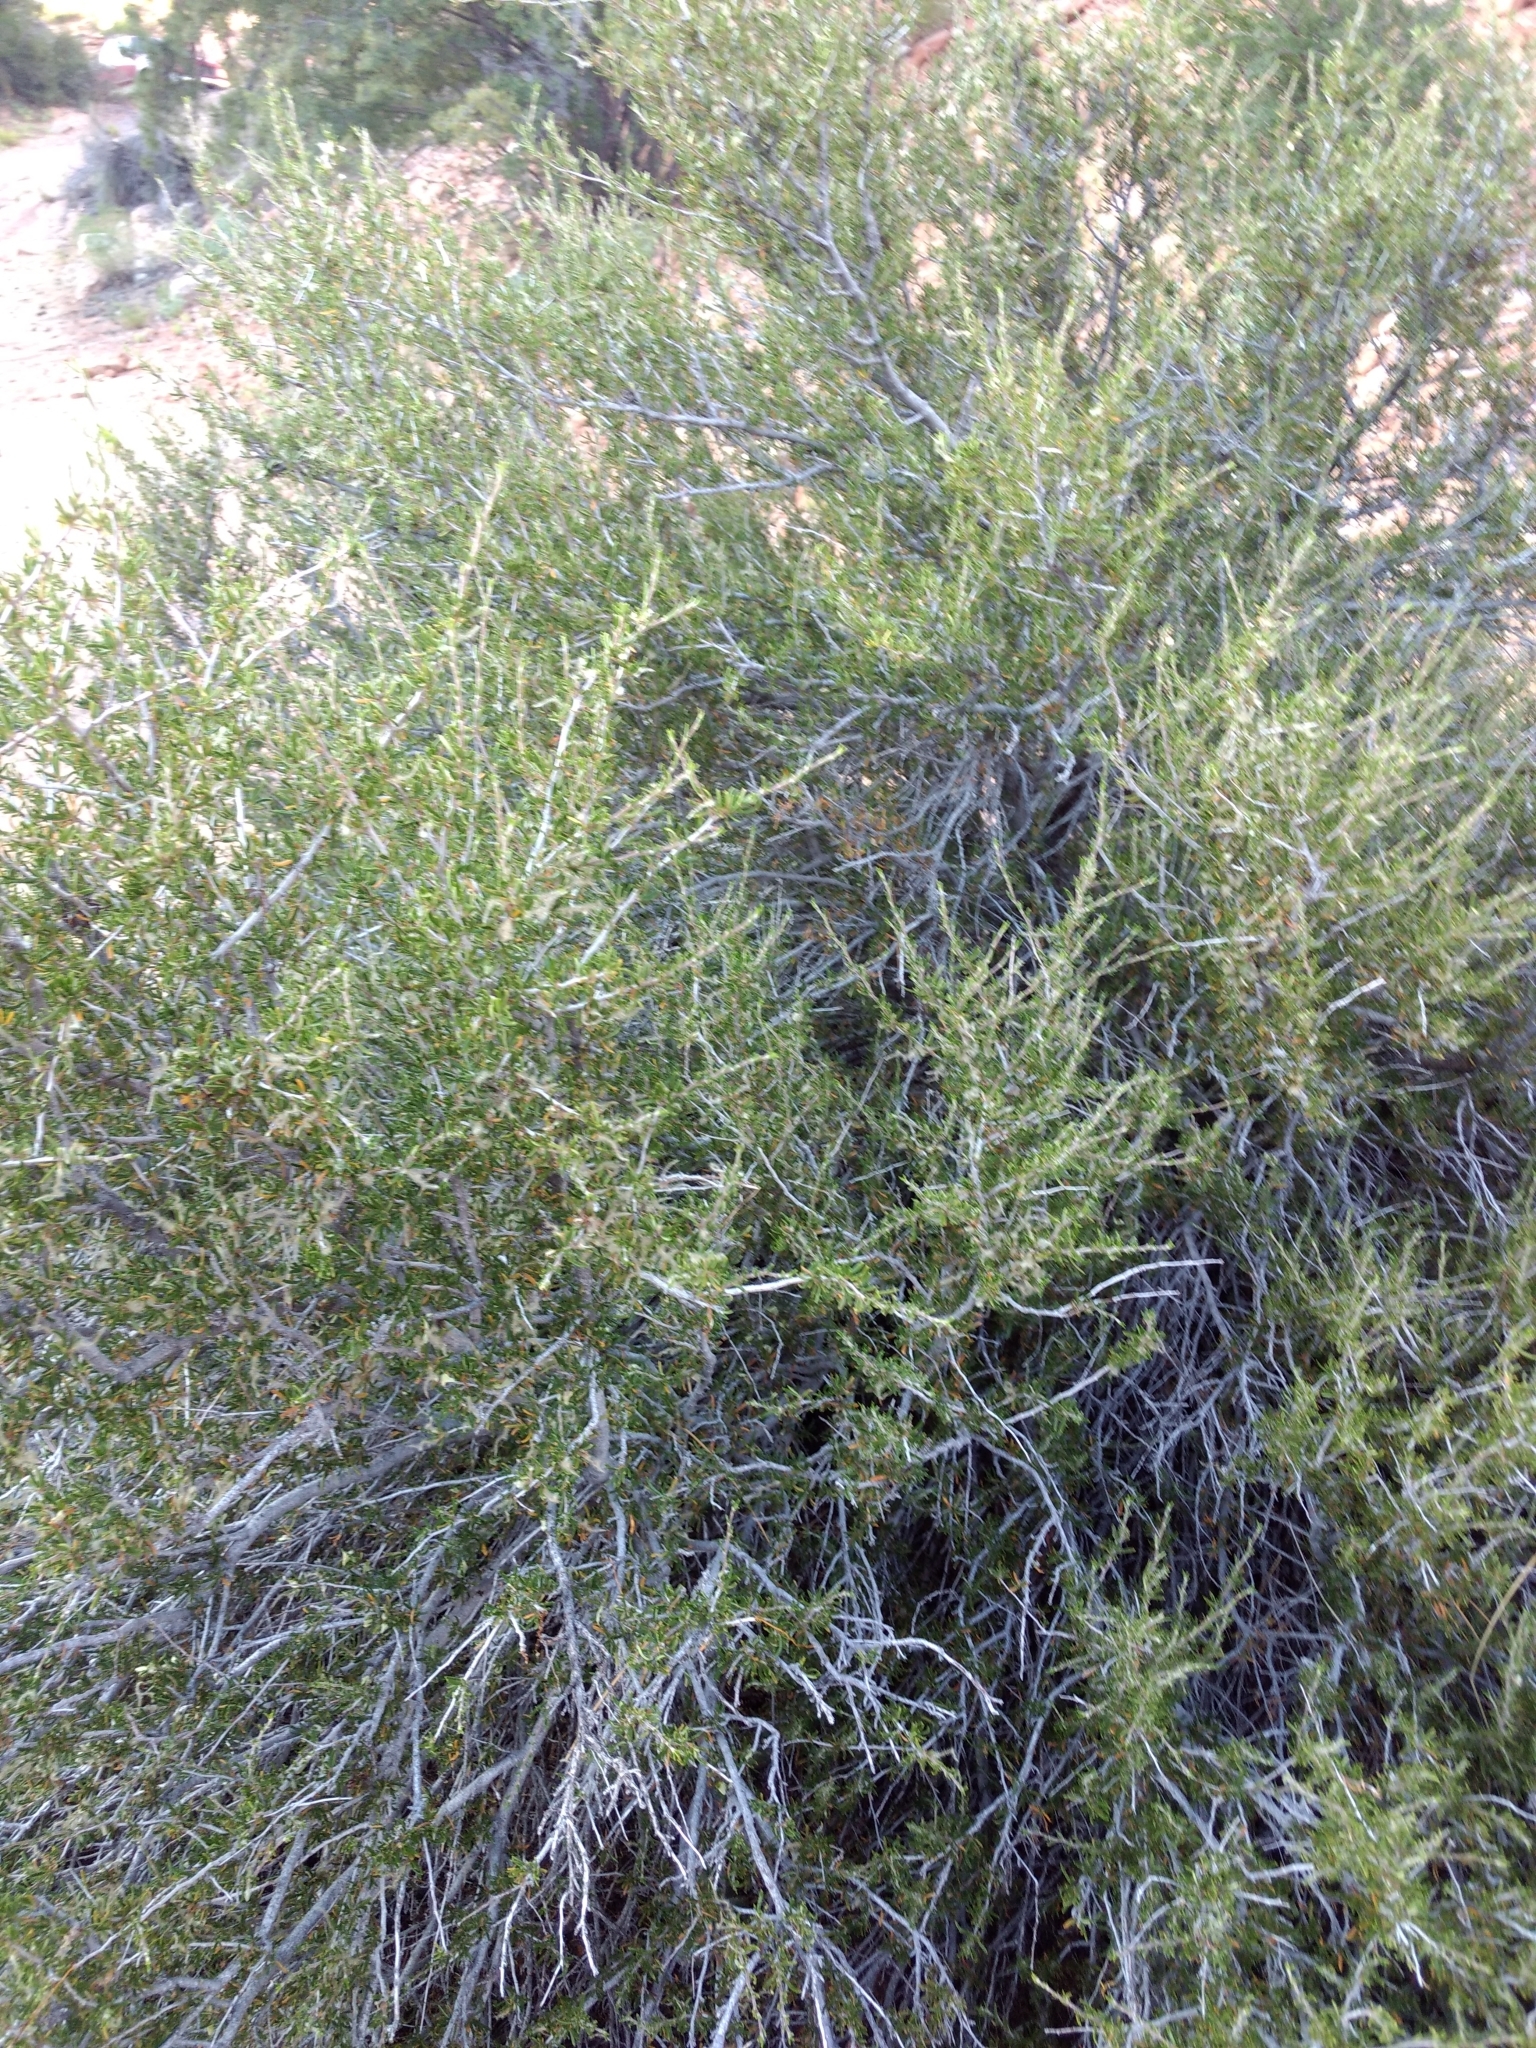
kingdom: Plantae
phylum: Tracheophyta
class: Magnoliopsida
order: Rosales
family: Rosaceae
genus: Cercocarpus
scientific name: Cercocarpus intricatus
